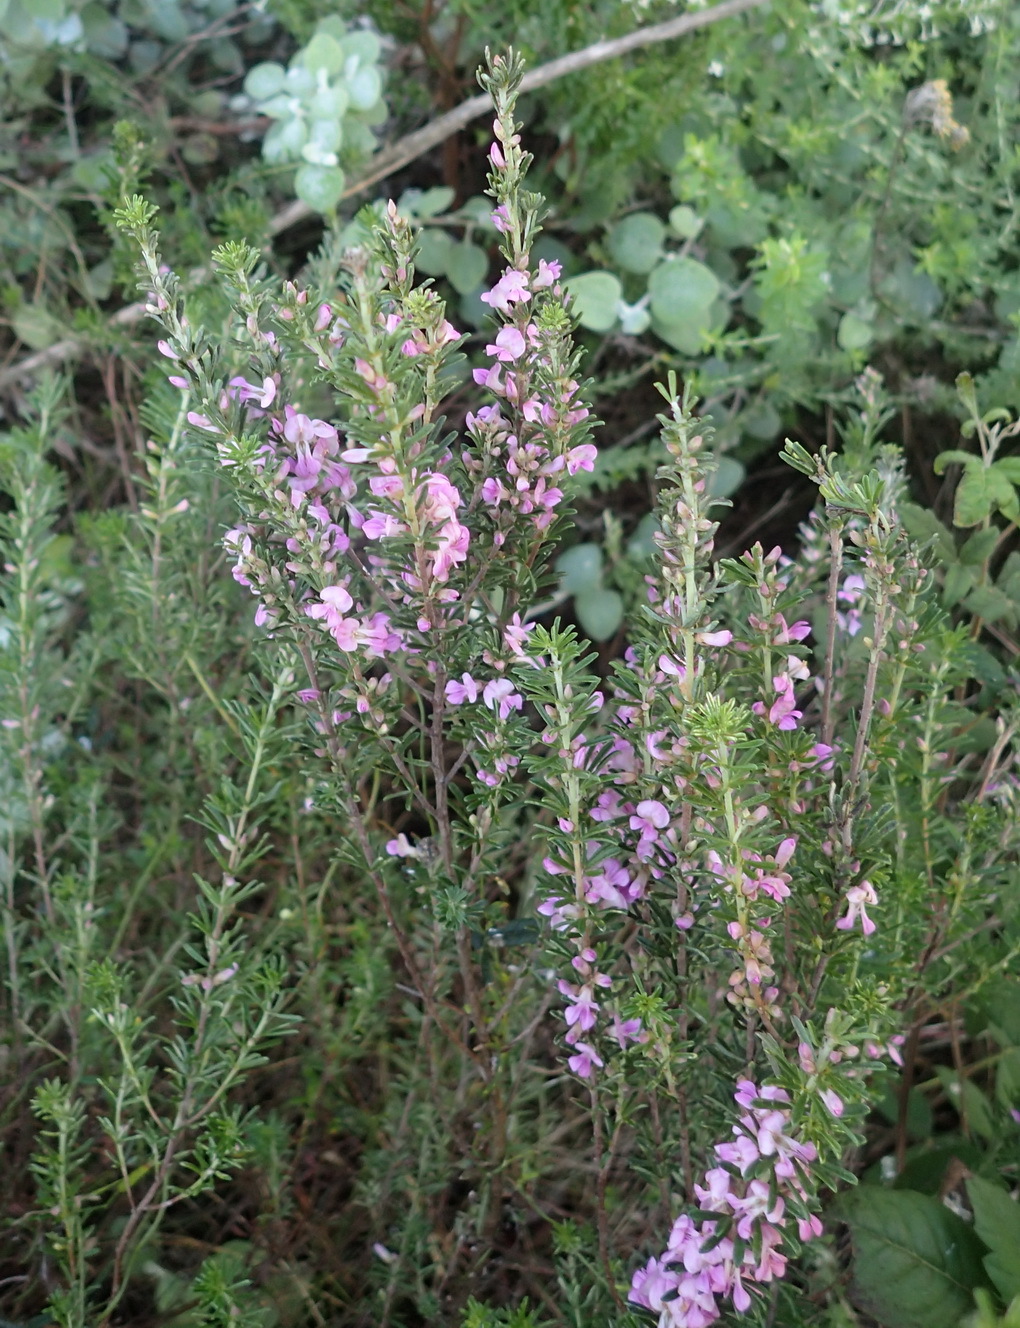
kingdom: Plantae
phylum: Tracheophyta
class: Magnoliopsida
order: Fabales
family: Fabaceae
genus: Indigofera
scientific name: Indigofera pappei
